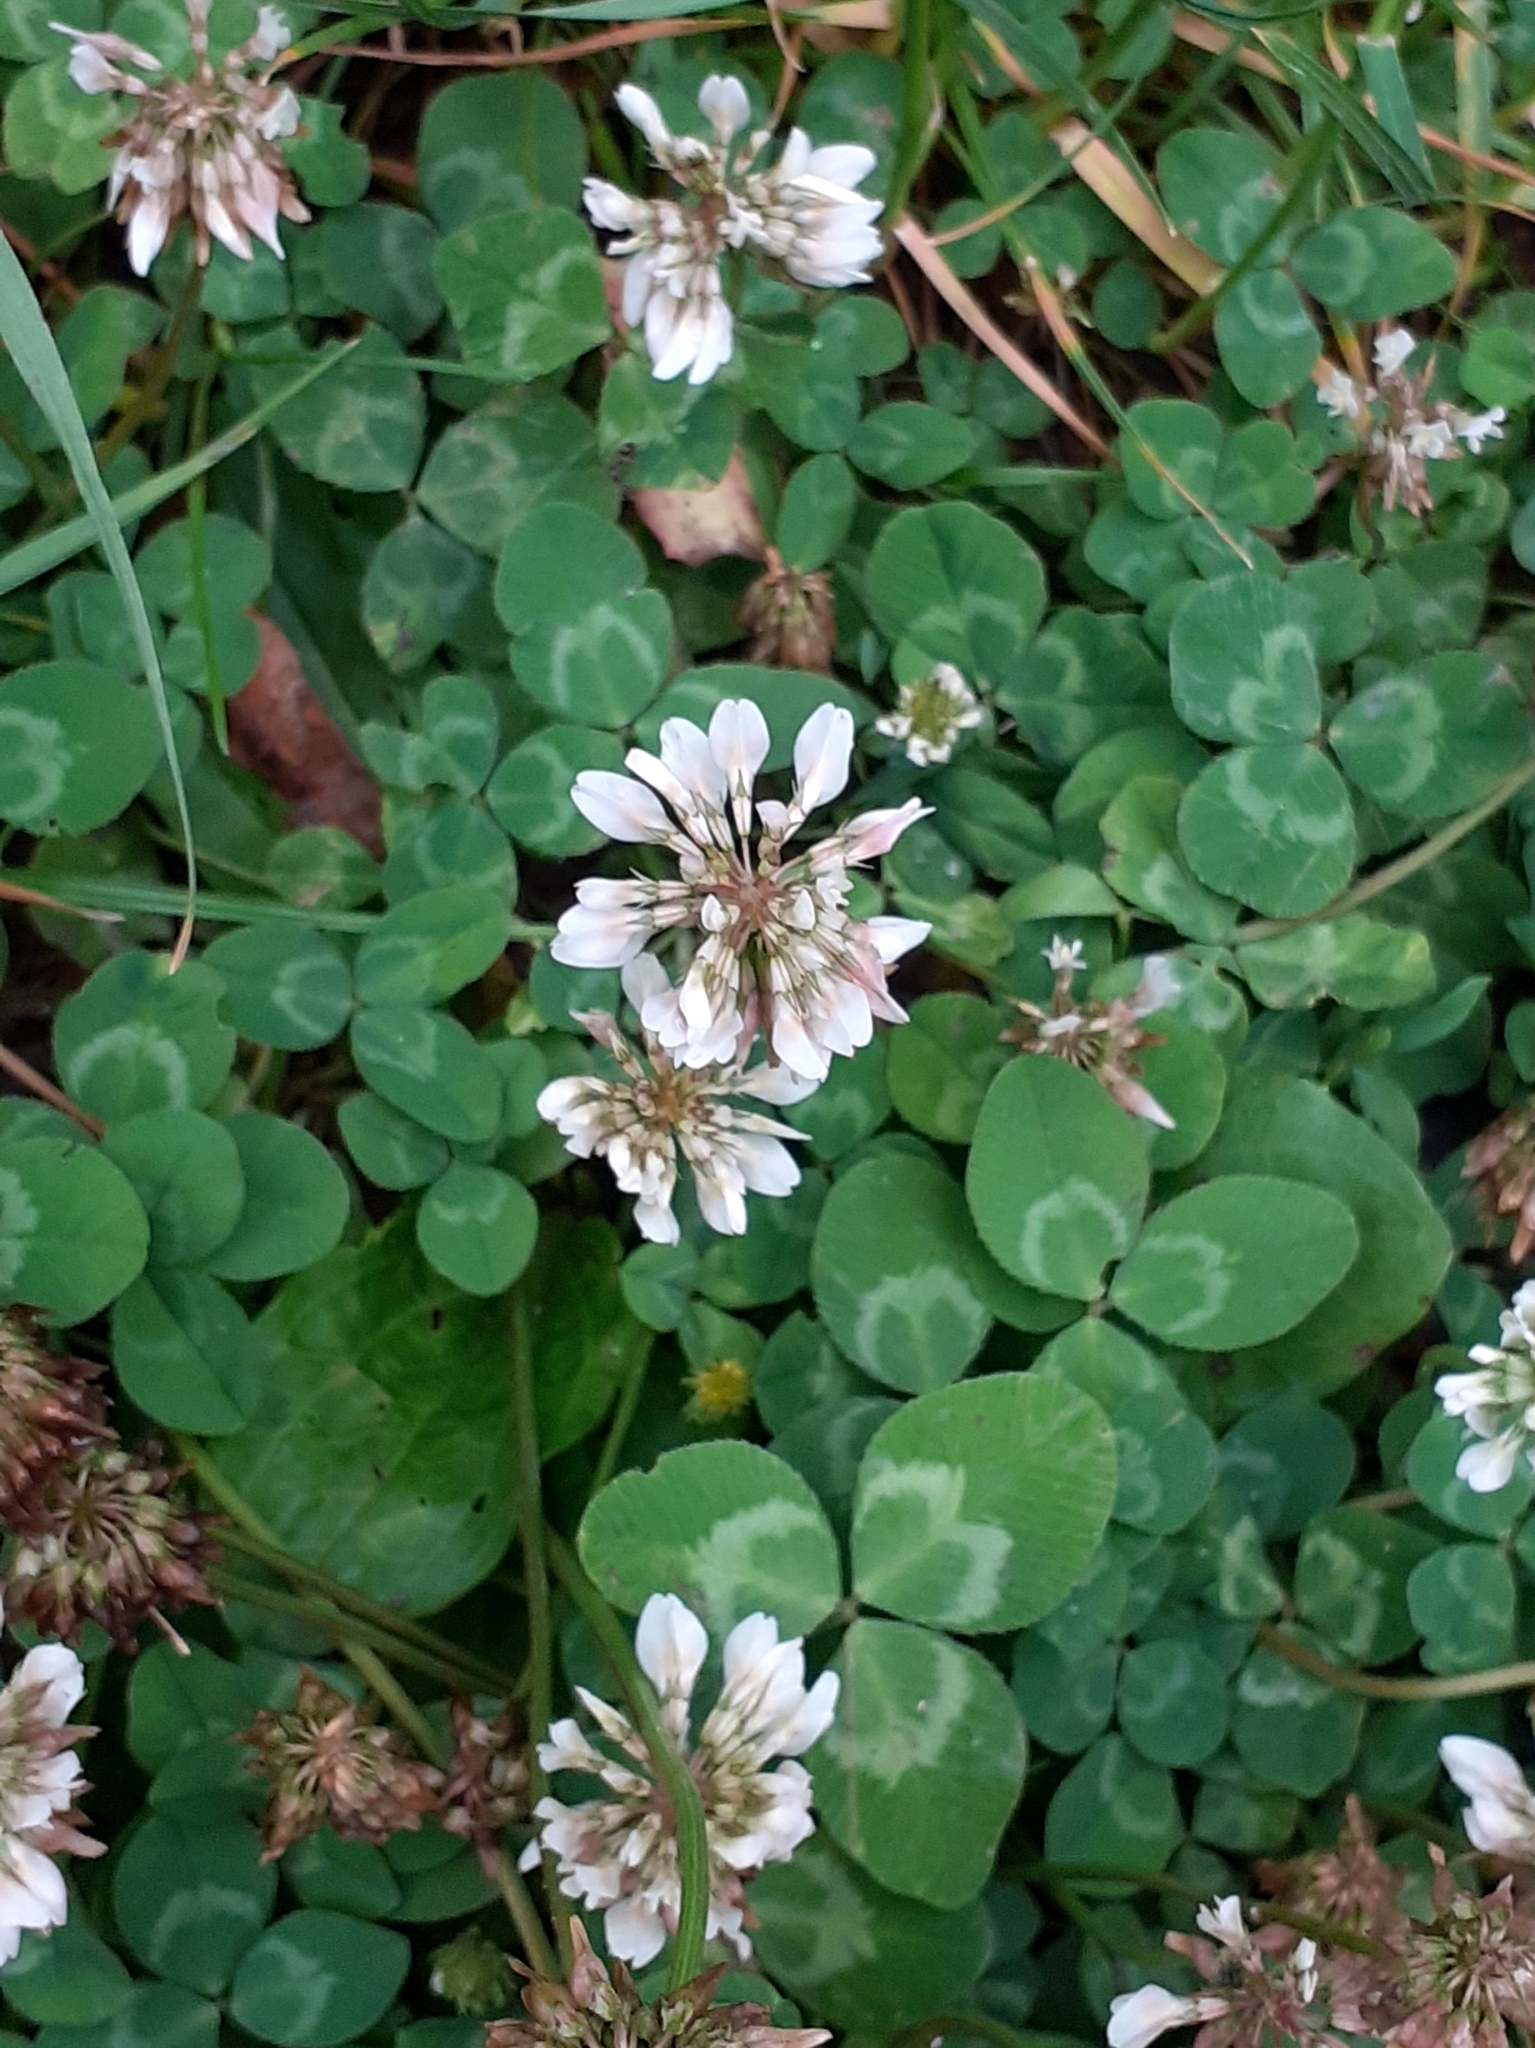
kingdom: Plantae
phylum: Tracheophyta
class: Magnoliopsida
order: Fabales
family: Fabaceae
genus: Trifolium
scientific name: Trifolium repens
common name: White clover
